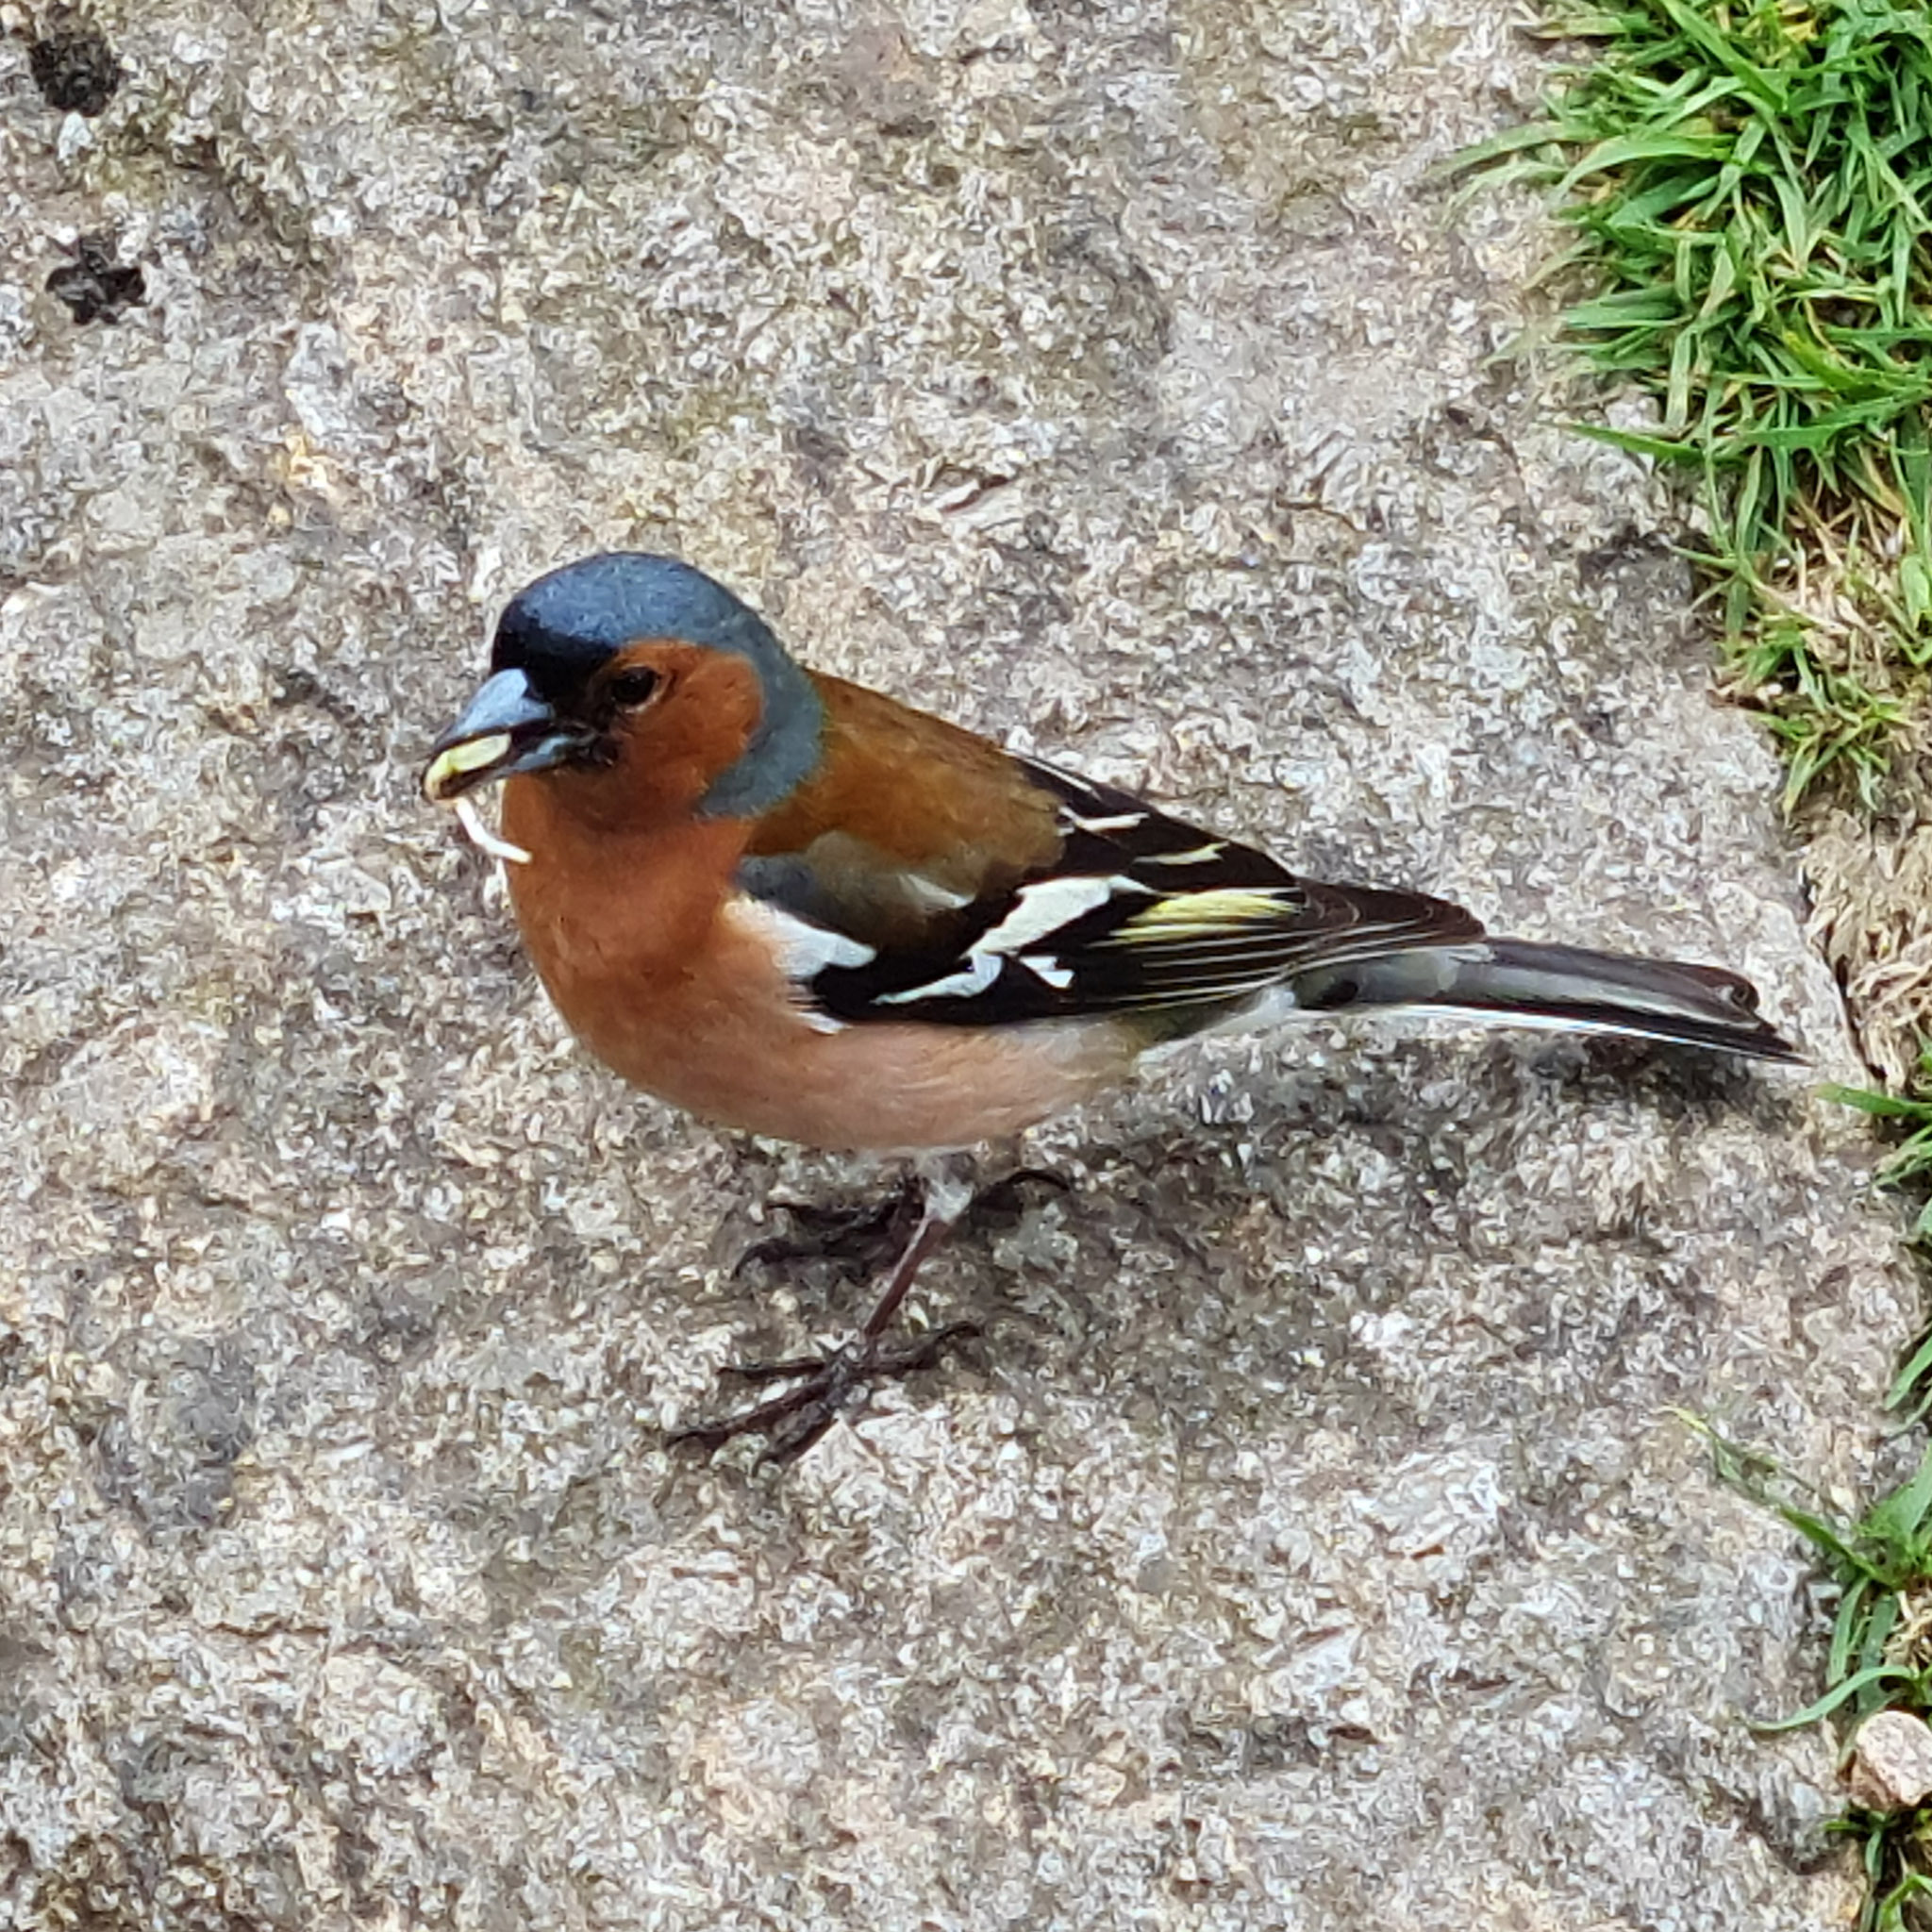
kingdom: Animalia
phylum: Chordata
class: Aves
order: Passeriformes
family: Fringillidae
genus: Fringilla
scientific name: Fringilla coelebs
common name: Common chaffinch
